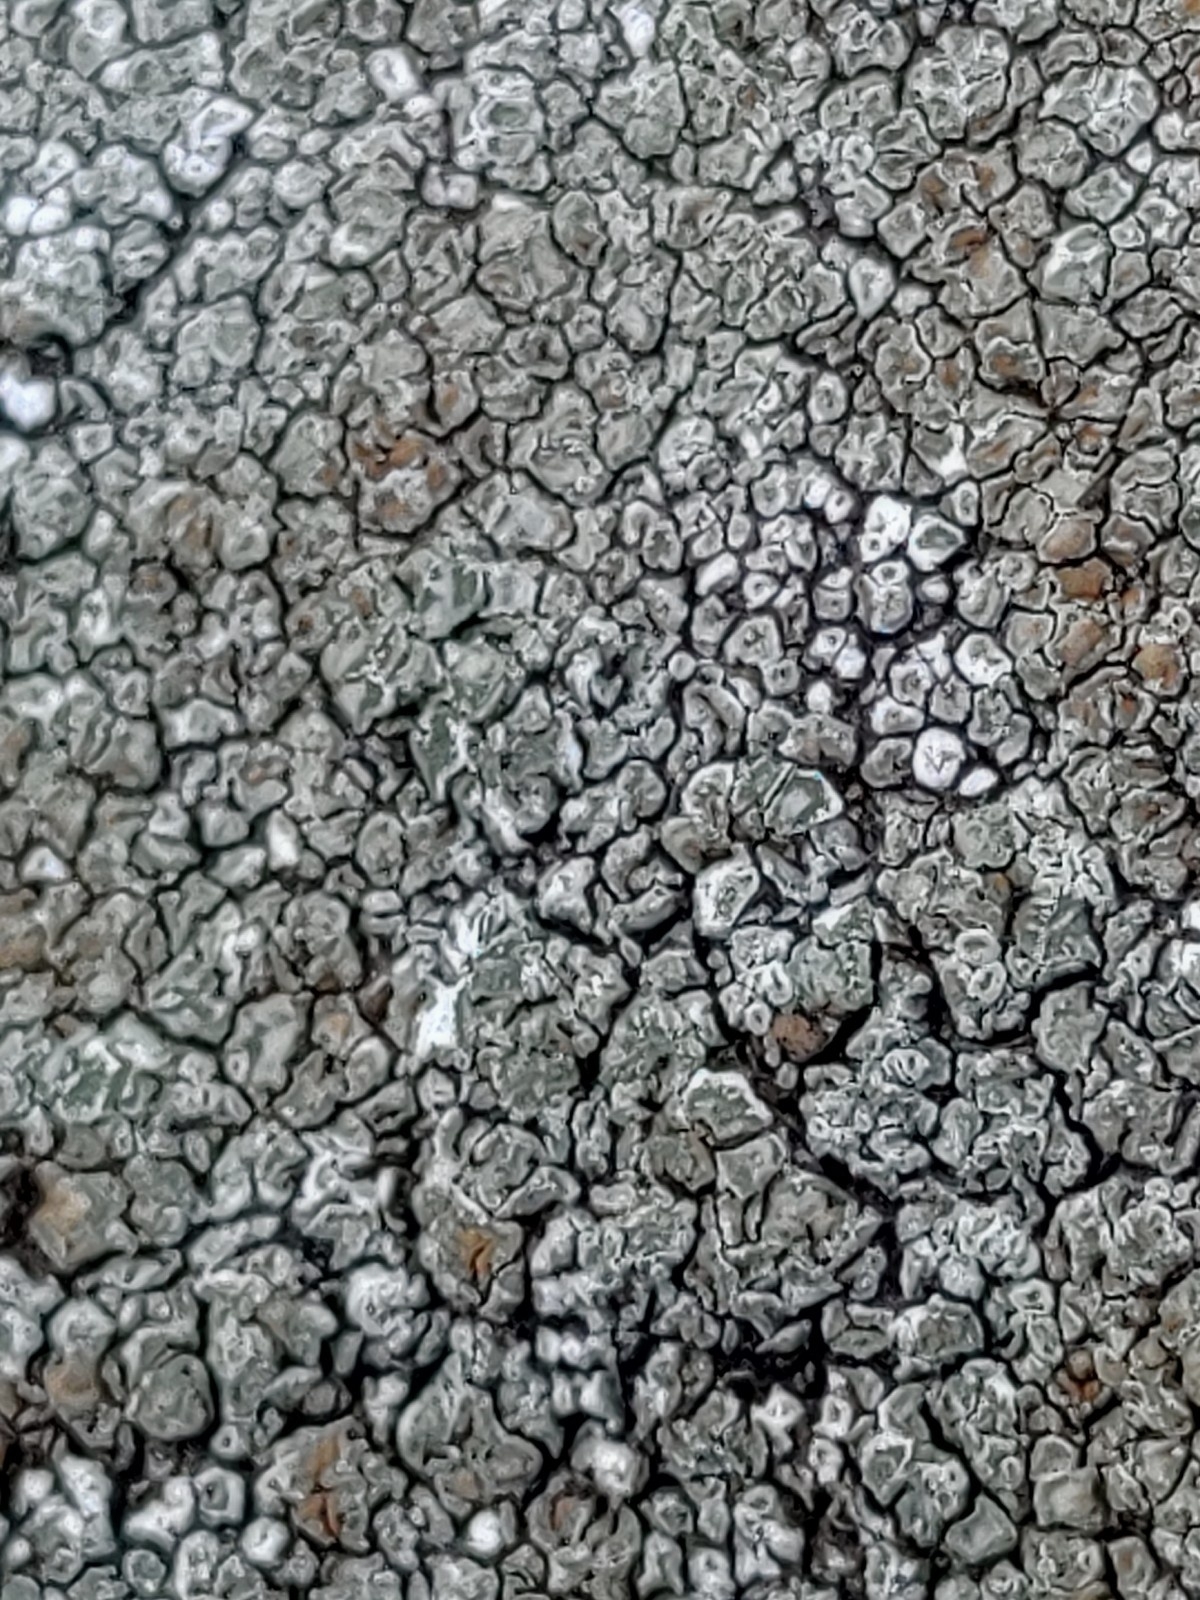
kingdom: Fungi
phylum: Ascomycota
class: Lecanoromycetes
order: Lecanorales
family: Lecanoraceae
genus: Protoparmeliopsis
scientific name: Protoparmeliopsis muralis
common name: Stonewall rim lichen
